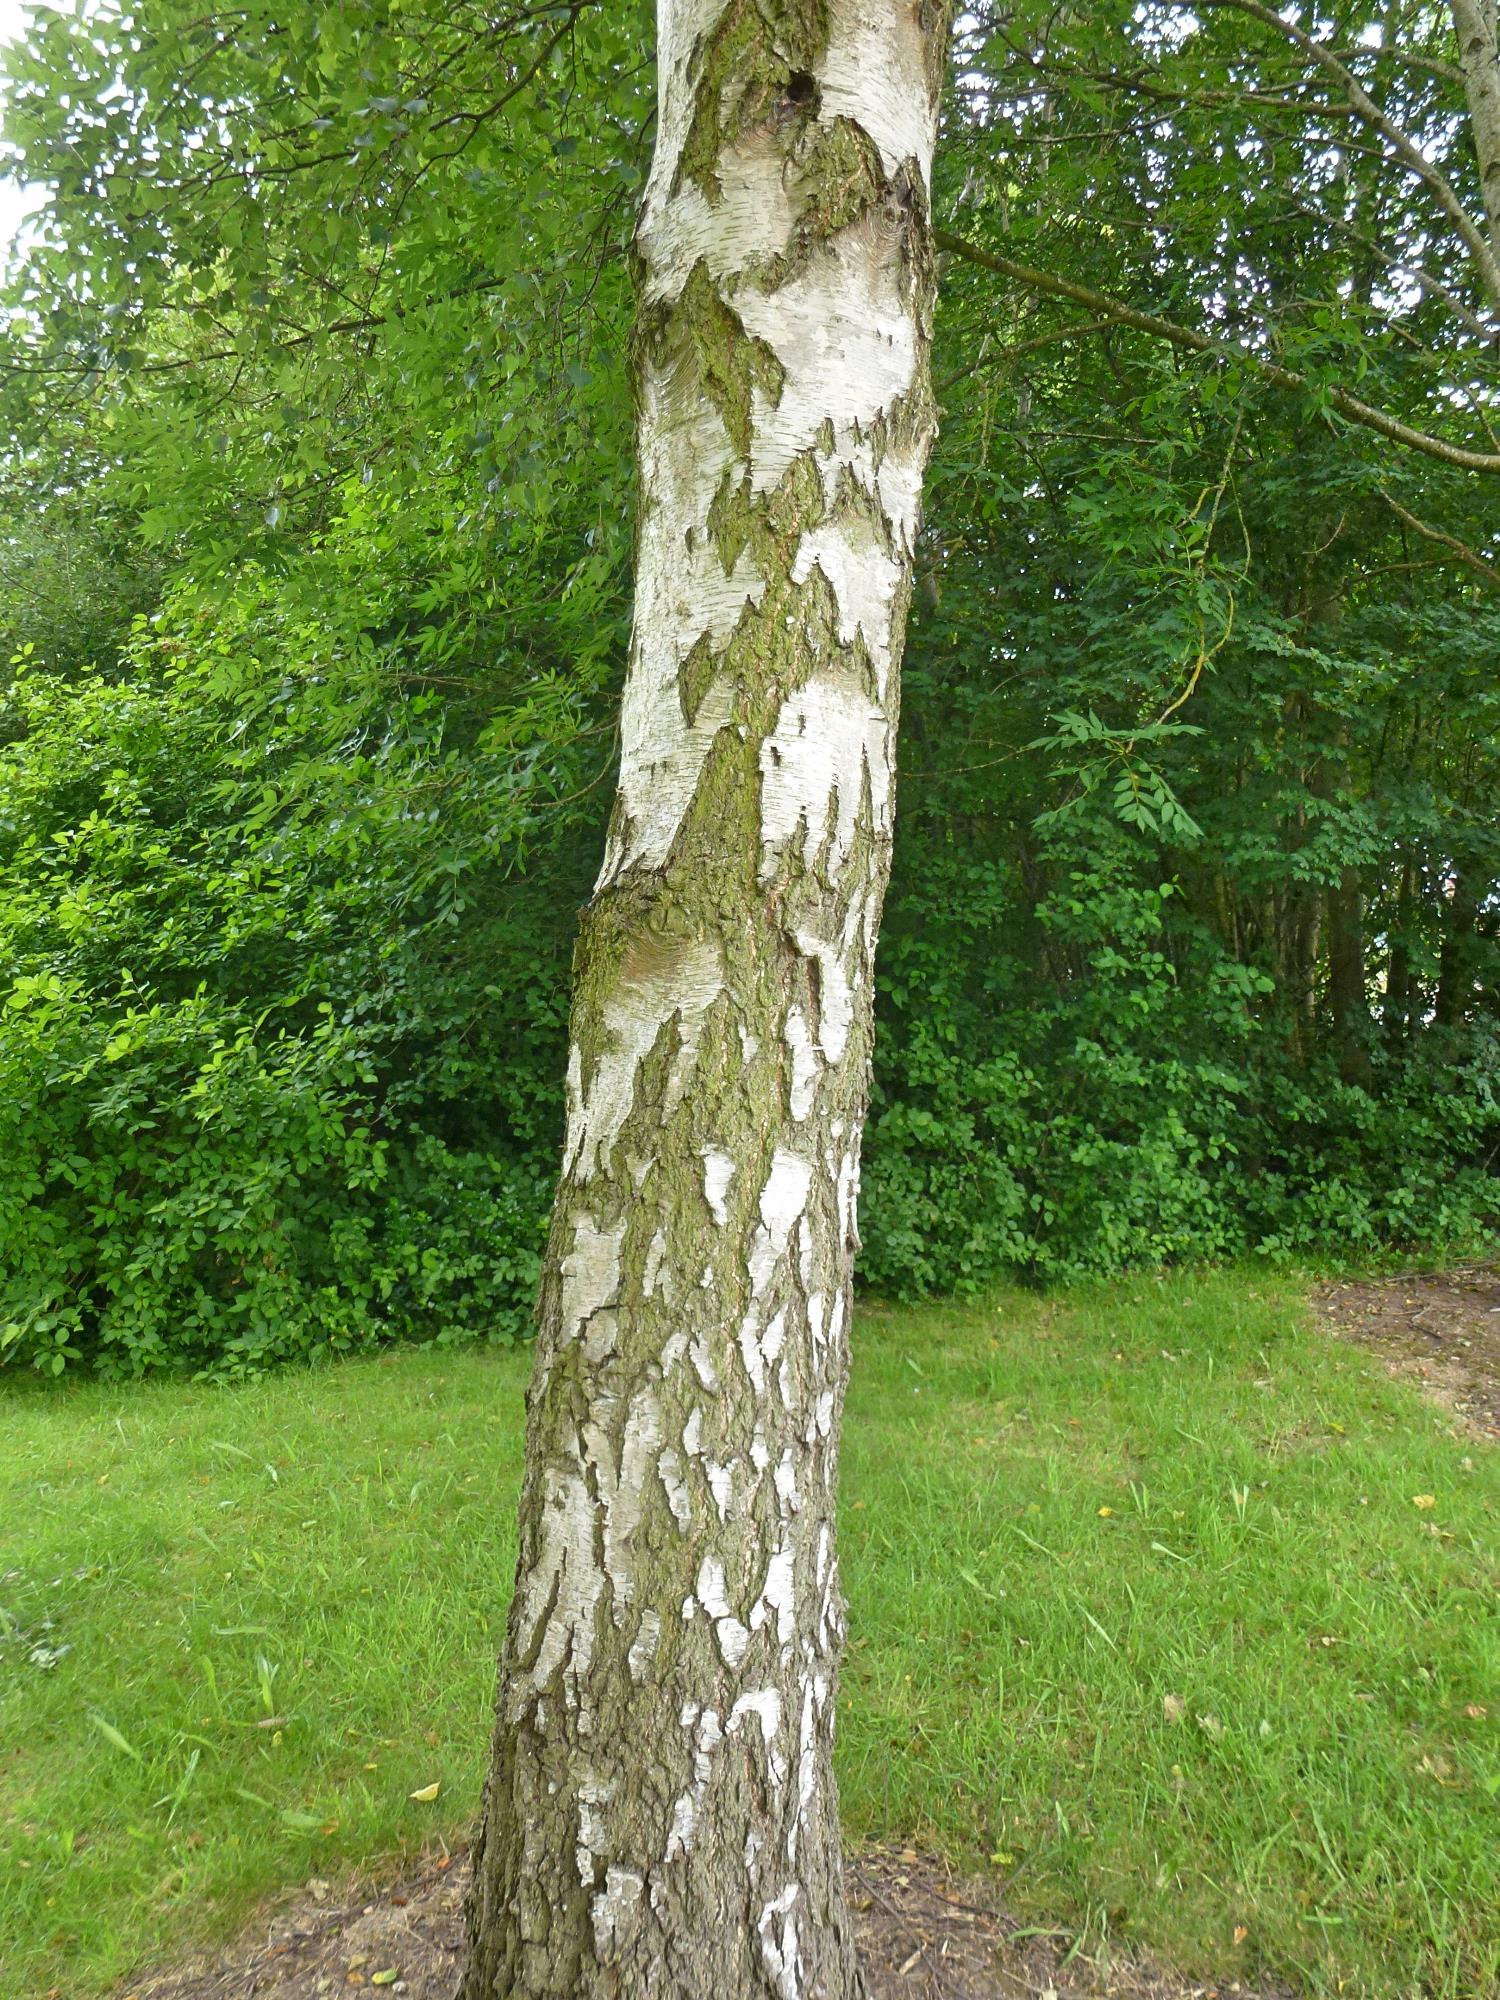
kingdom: Plantae
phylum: Tracheophyta
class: Magnoliopsida
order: Fagales
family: Betulaceae
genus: Betula
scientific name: Betula pendula
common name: Silver birch
